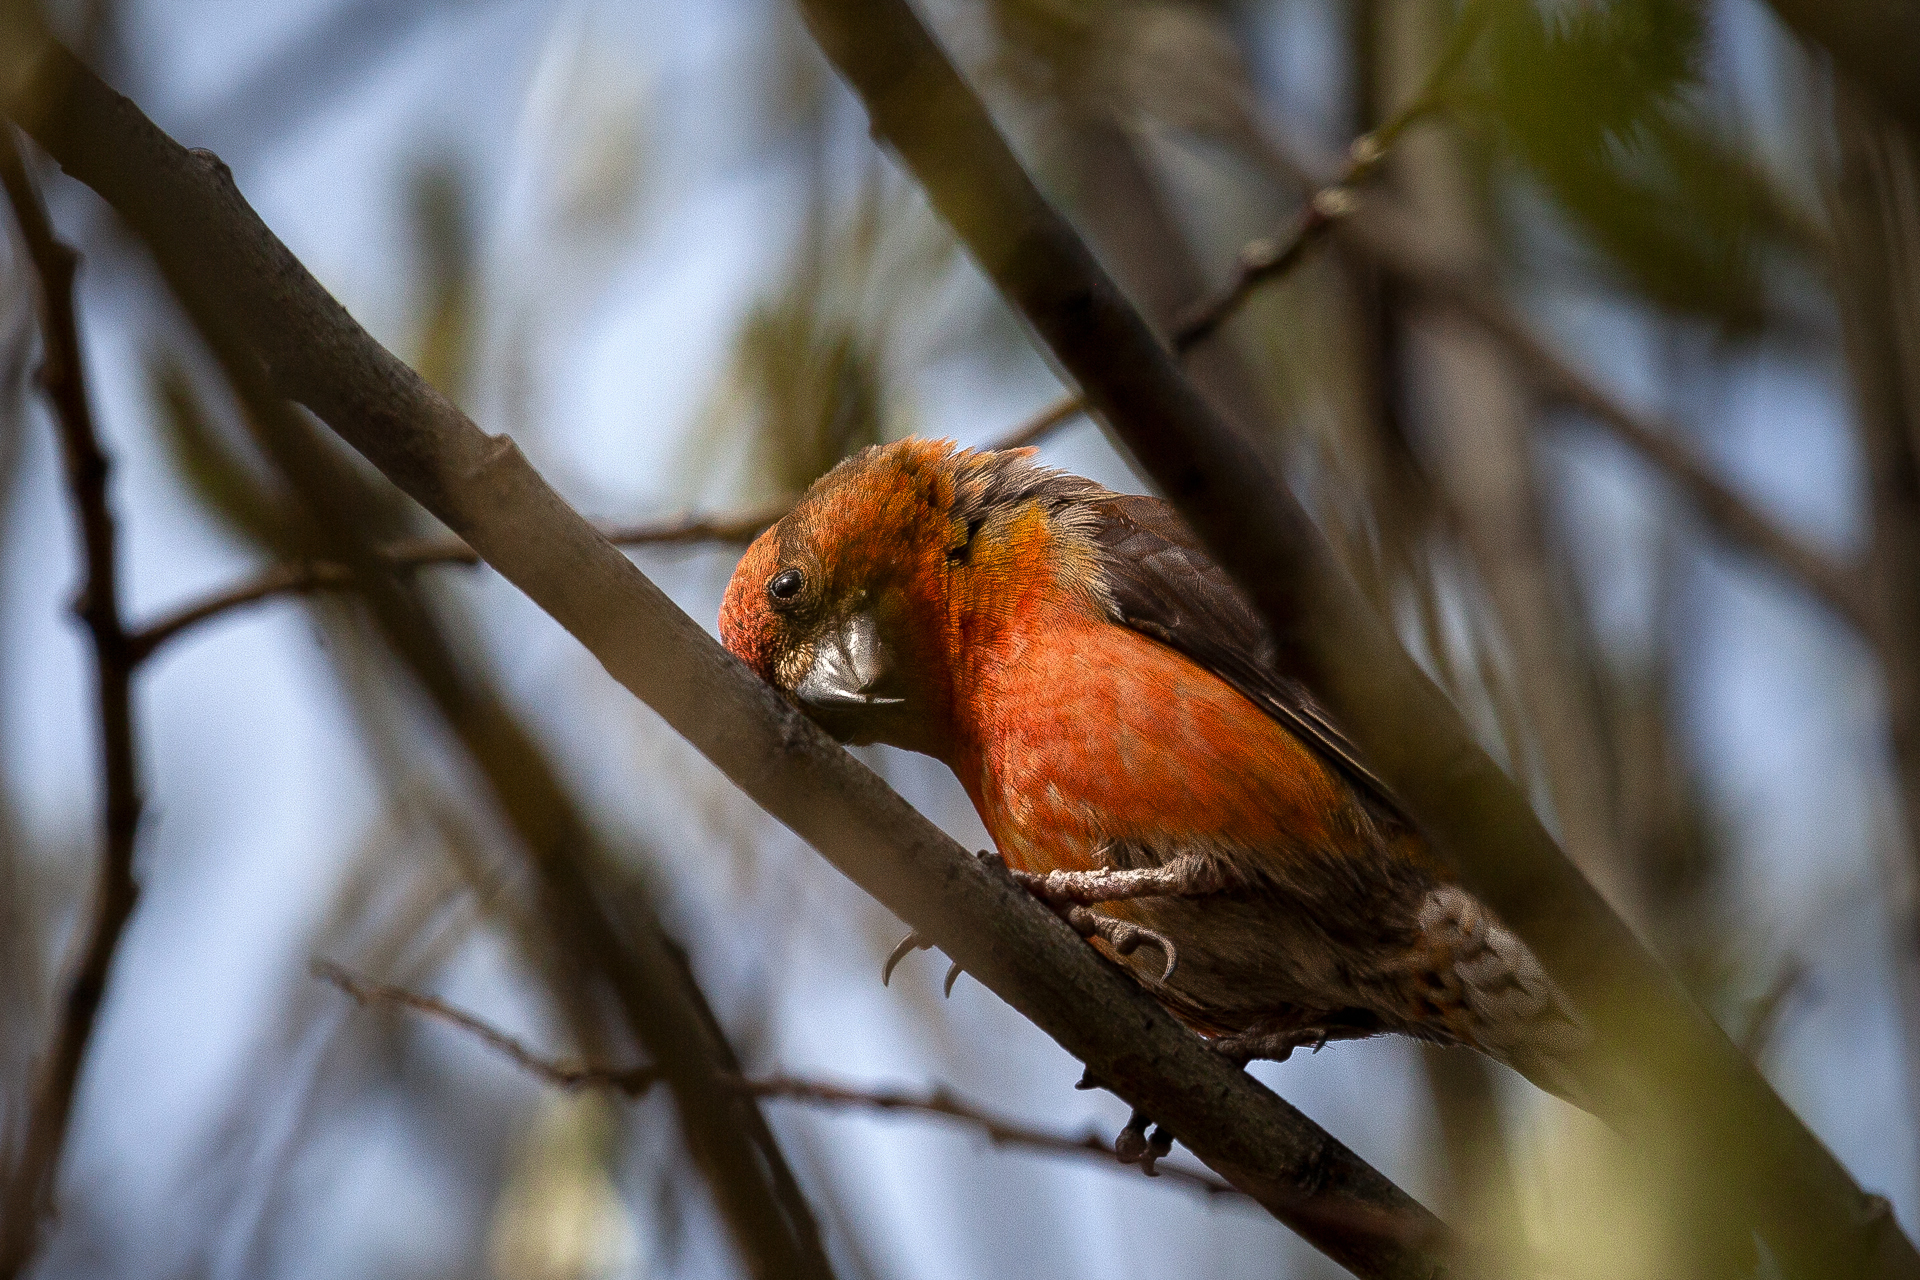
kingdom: Animalia
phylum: Chordata
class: Aves
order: Passeriformes
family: Fringillidae
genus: Loxia
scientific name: Loxia curvirostra
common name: Red crossbill
